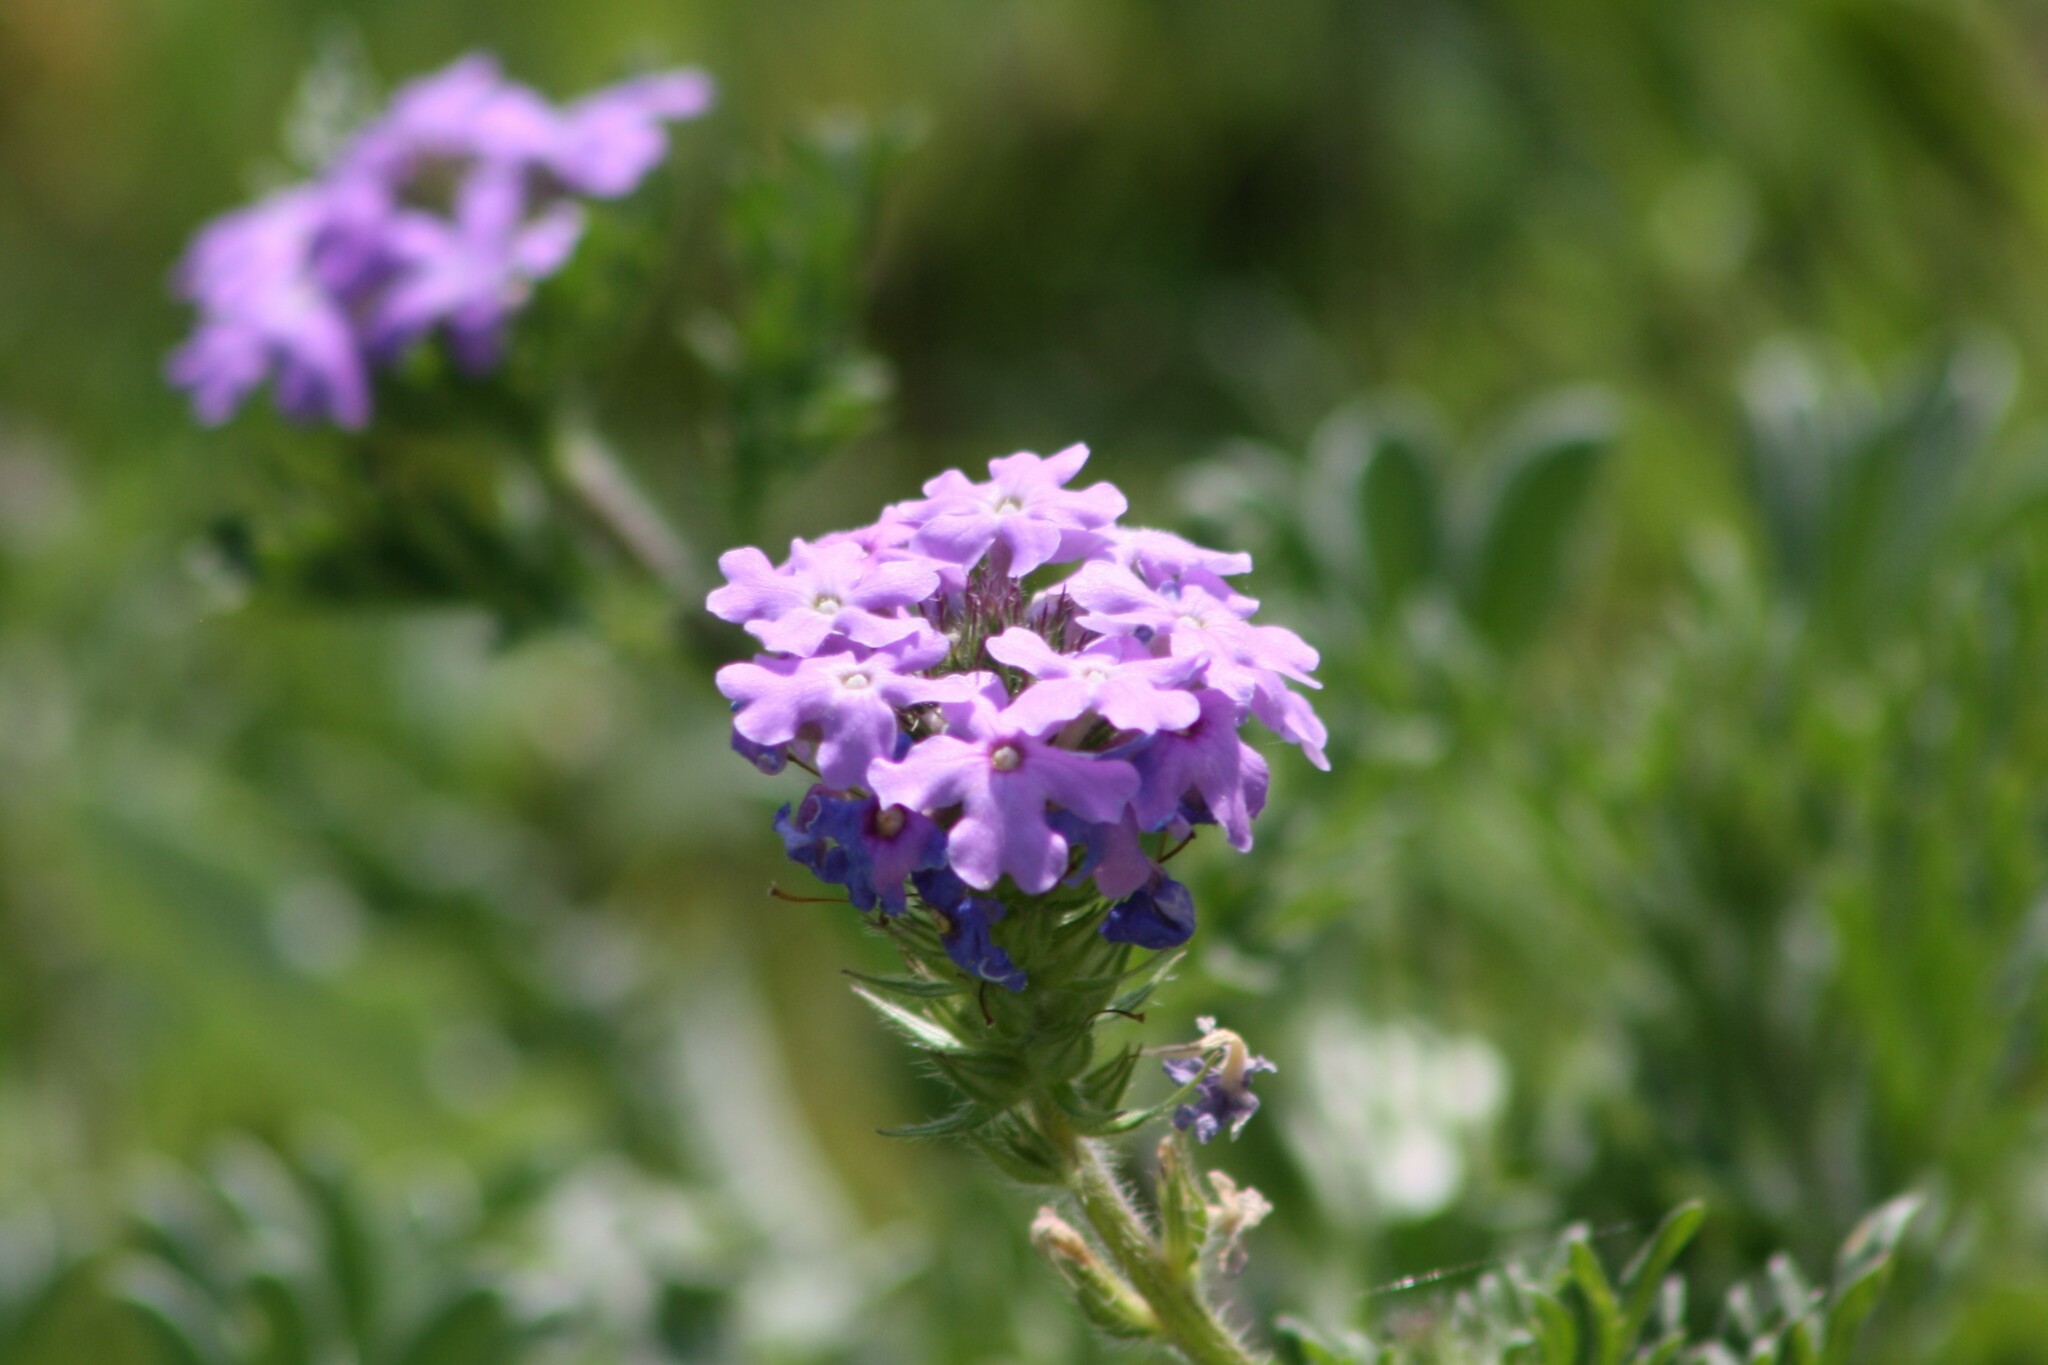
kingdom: Plantae
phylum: Tracheophyta
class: Magnoliopsida
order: Lamiales
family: Verbenaceae
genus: Verbena
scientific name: Verbena bipinnatifida
